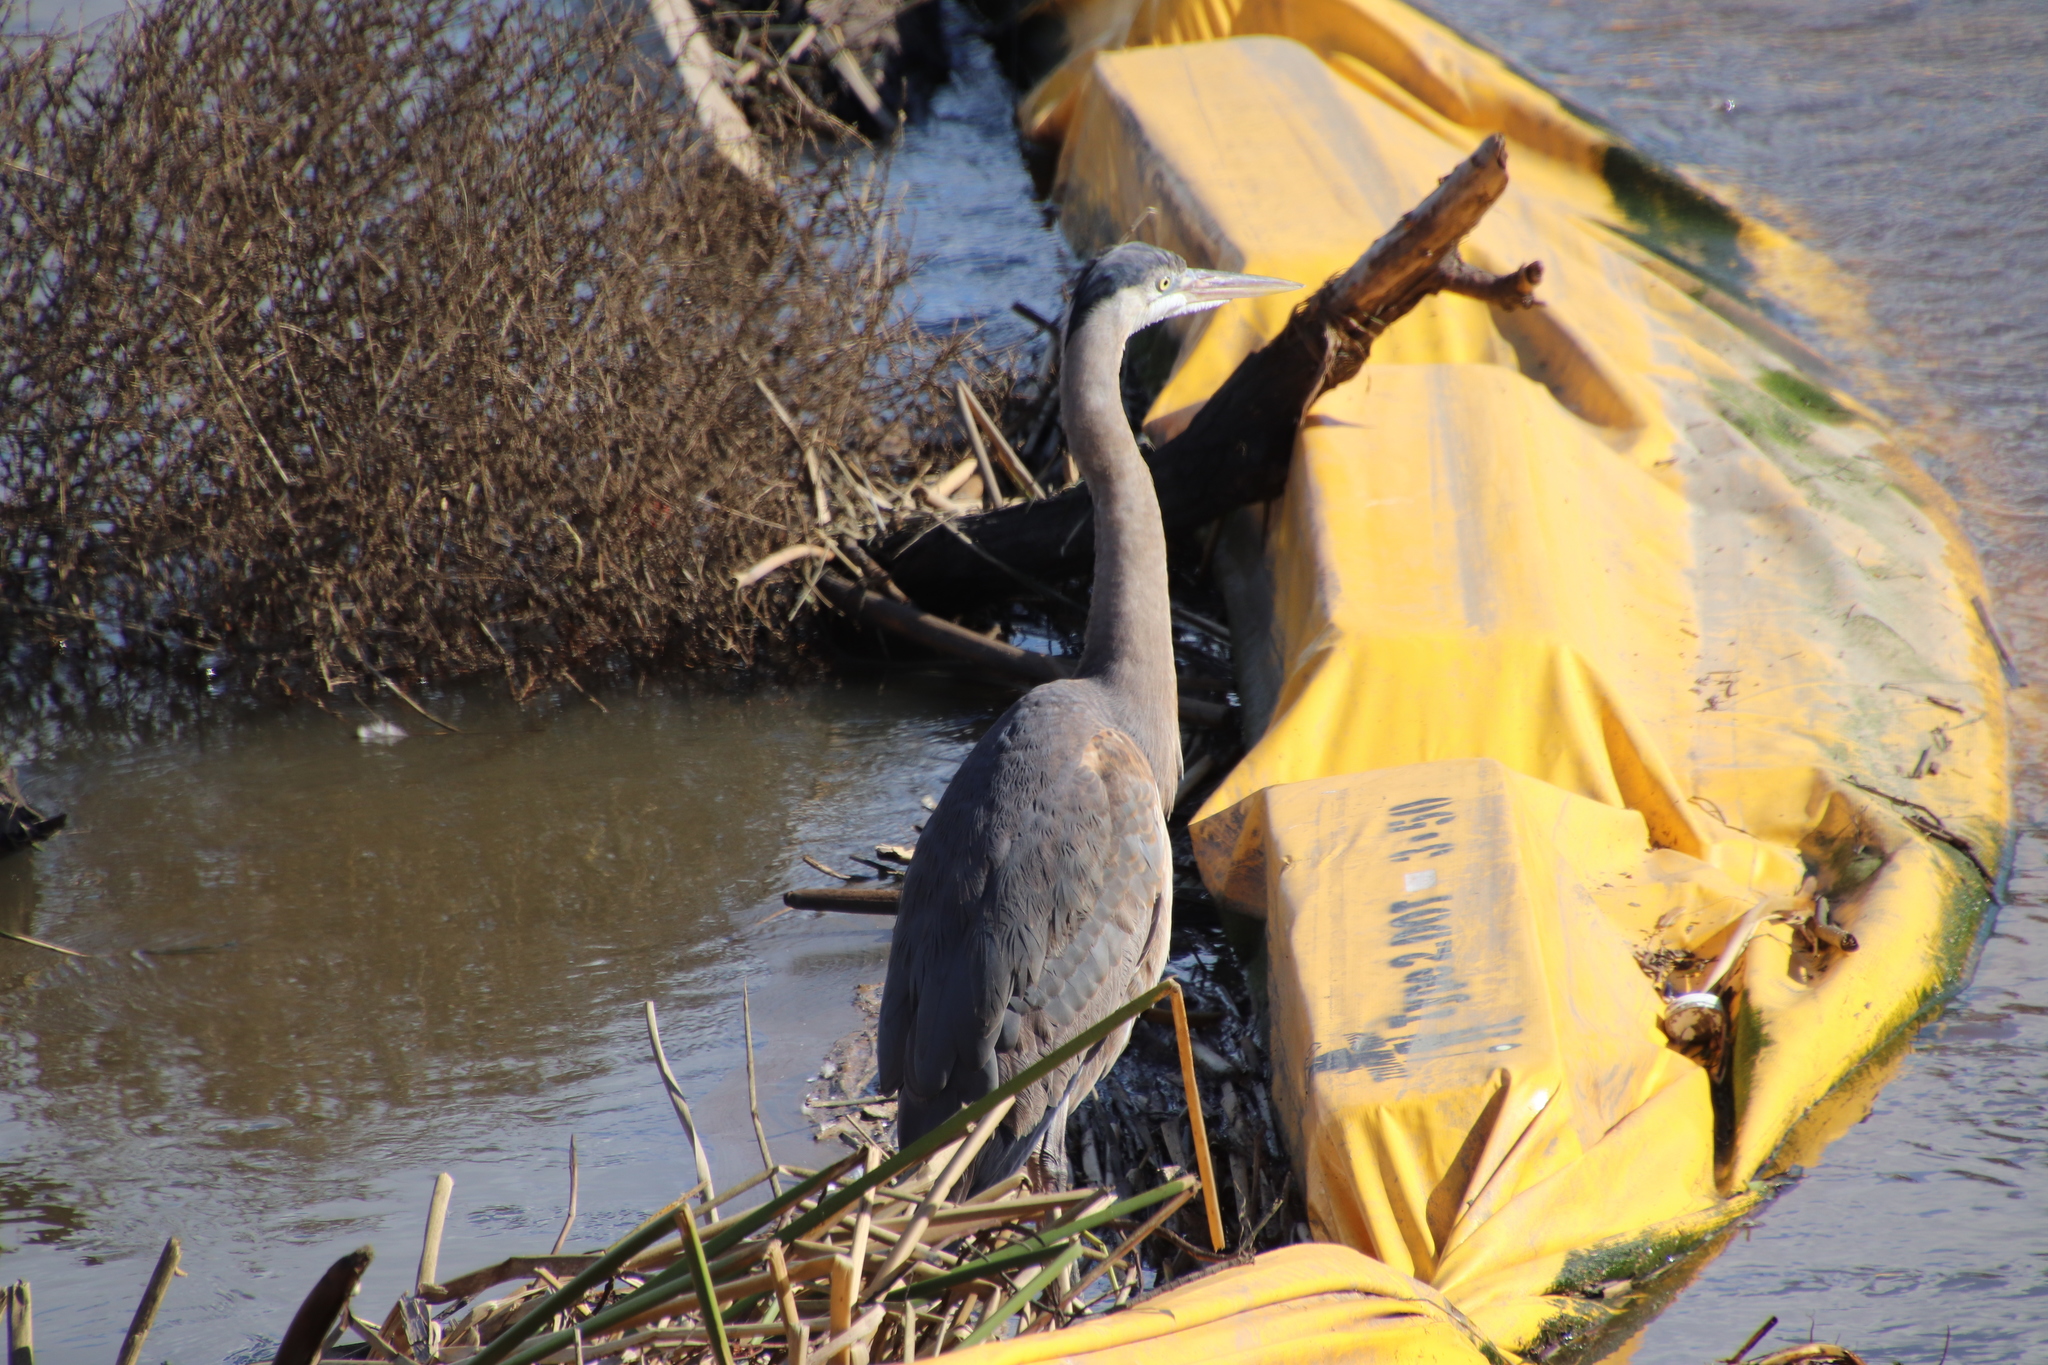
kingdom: Animalia
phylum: Chordata
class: Aves
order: Pelecaniformes
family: Ardeidae
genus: Ardea
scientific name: Ardea herodias
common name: Great blue heron
